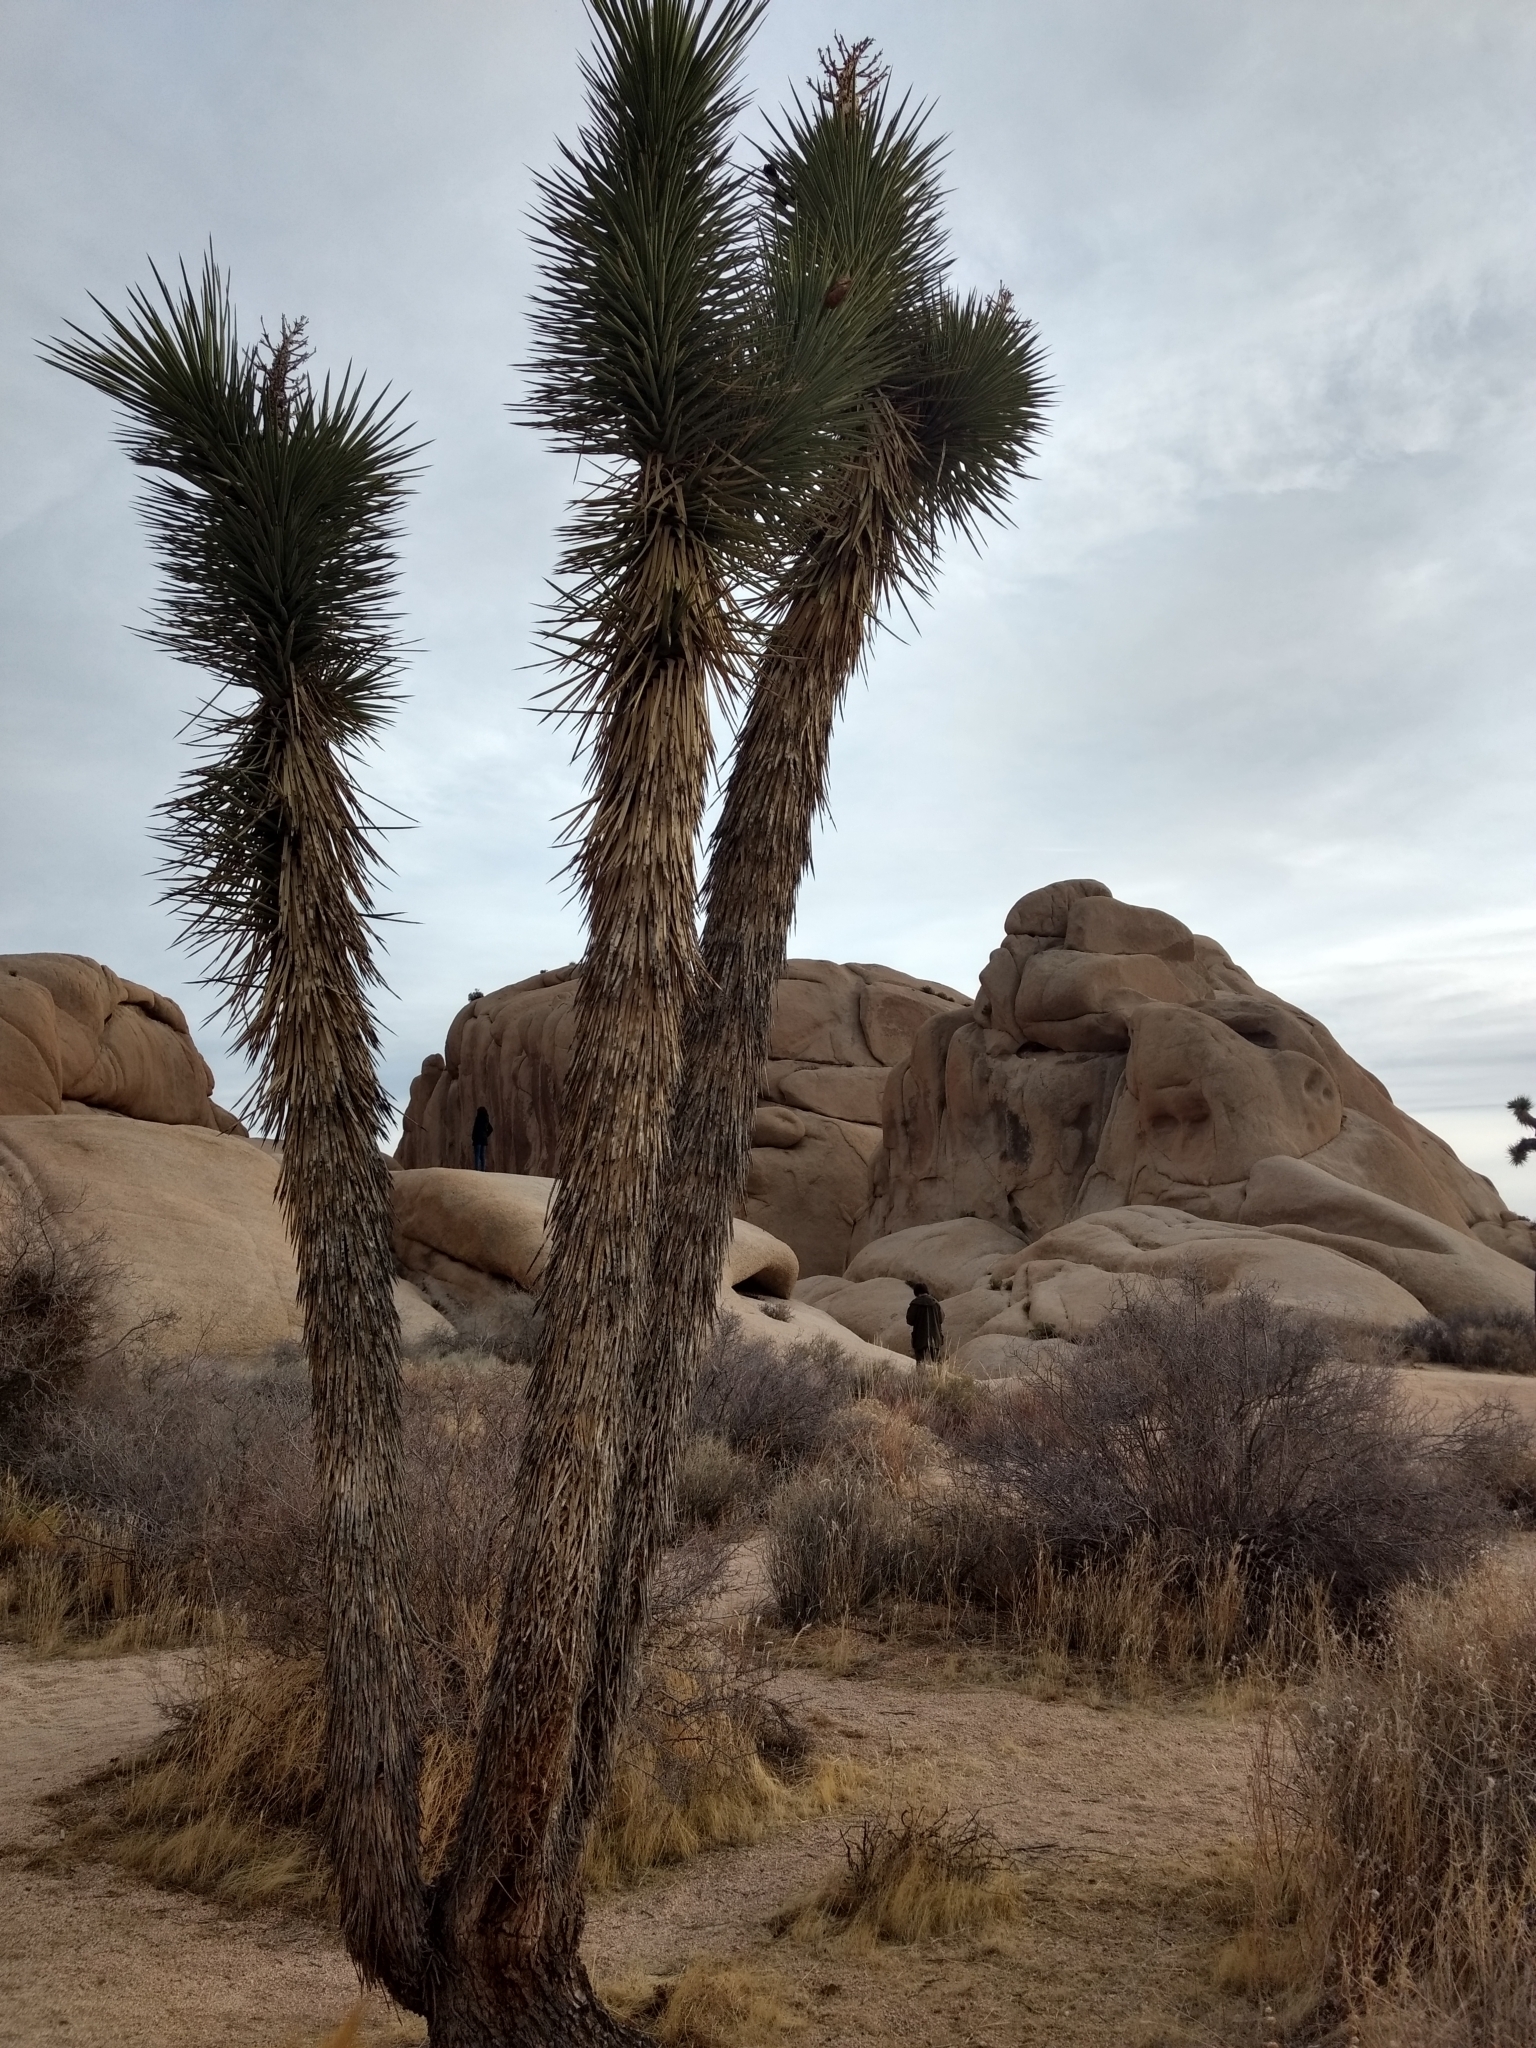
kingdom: Plantae
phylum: Tracheophyta
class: Liliopsida
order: Asparagales
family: Asparagaceae
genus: Yucca
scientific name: Yucca brevifolia
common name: Joshua tree
